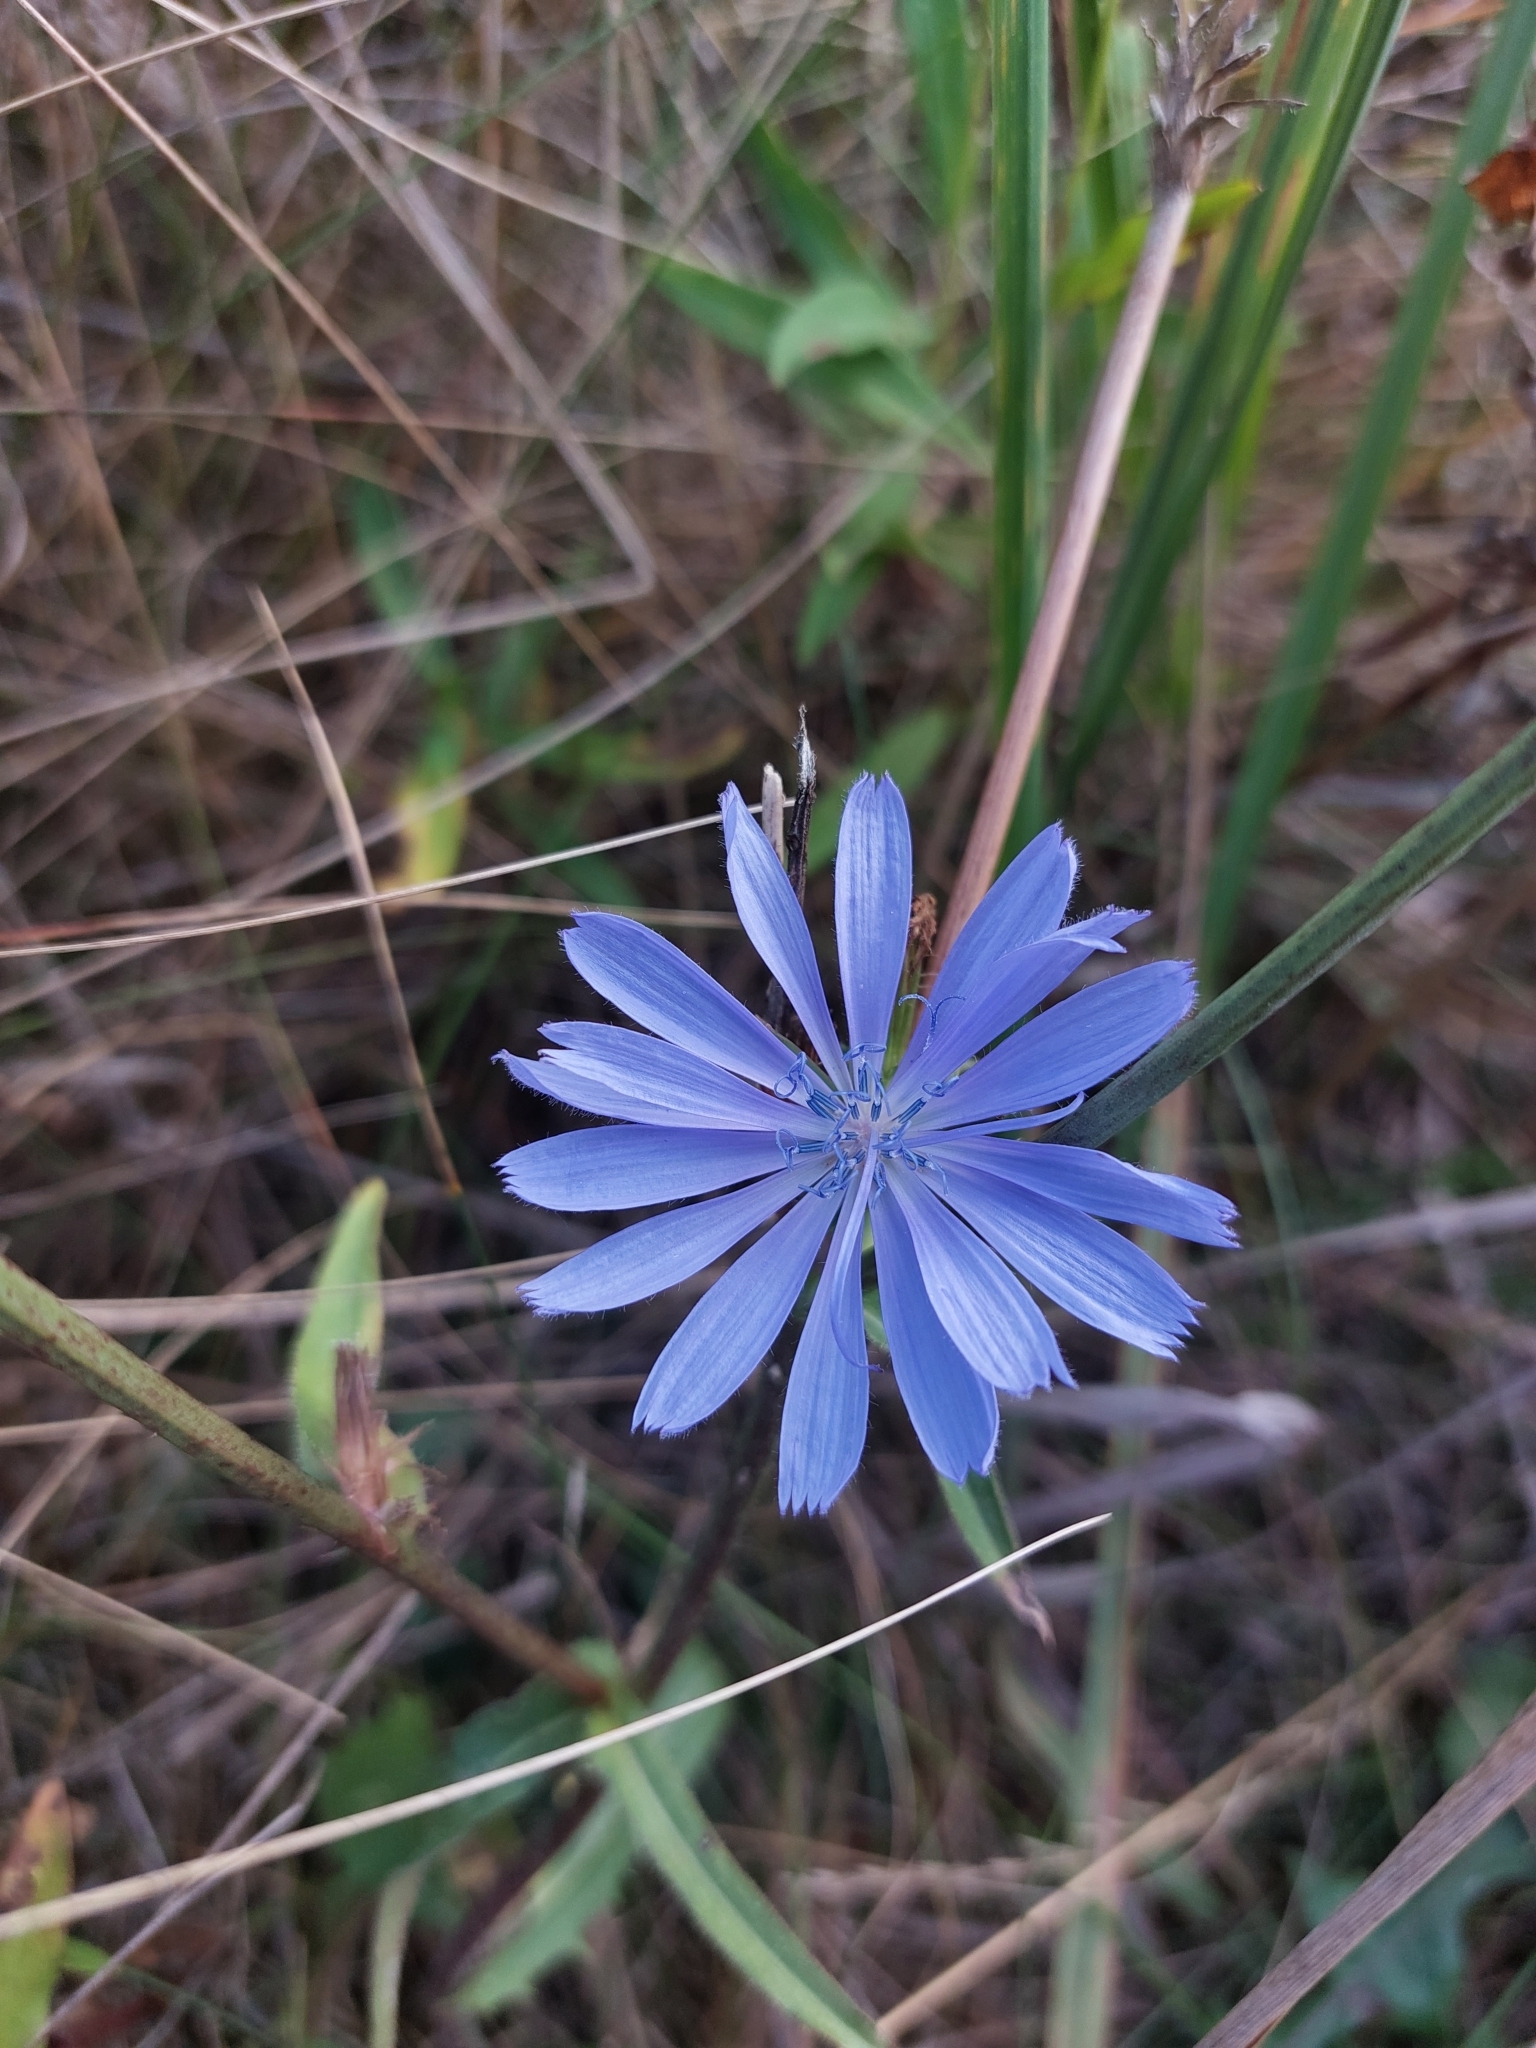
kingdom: Plantae
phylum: Tracheophyta
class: Magnoliopsida
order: Asterales
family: Asteraceae
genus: Cichorium
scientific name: Cichorium intybus
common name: Chicory
